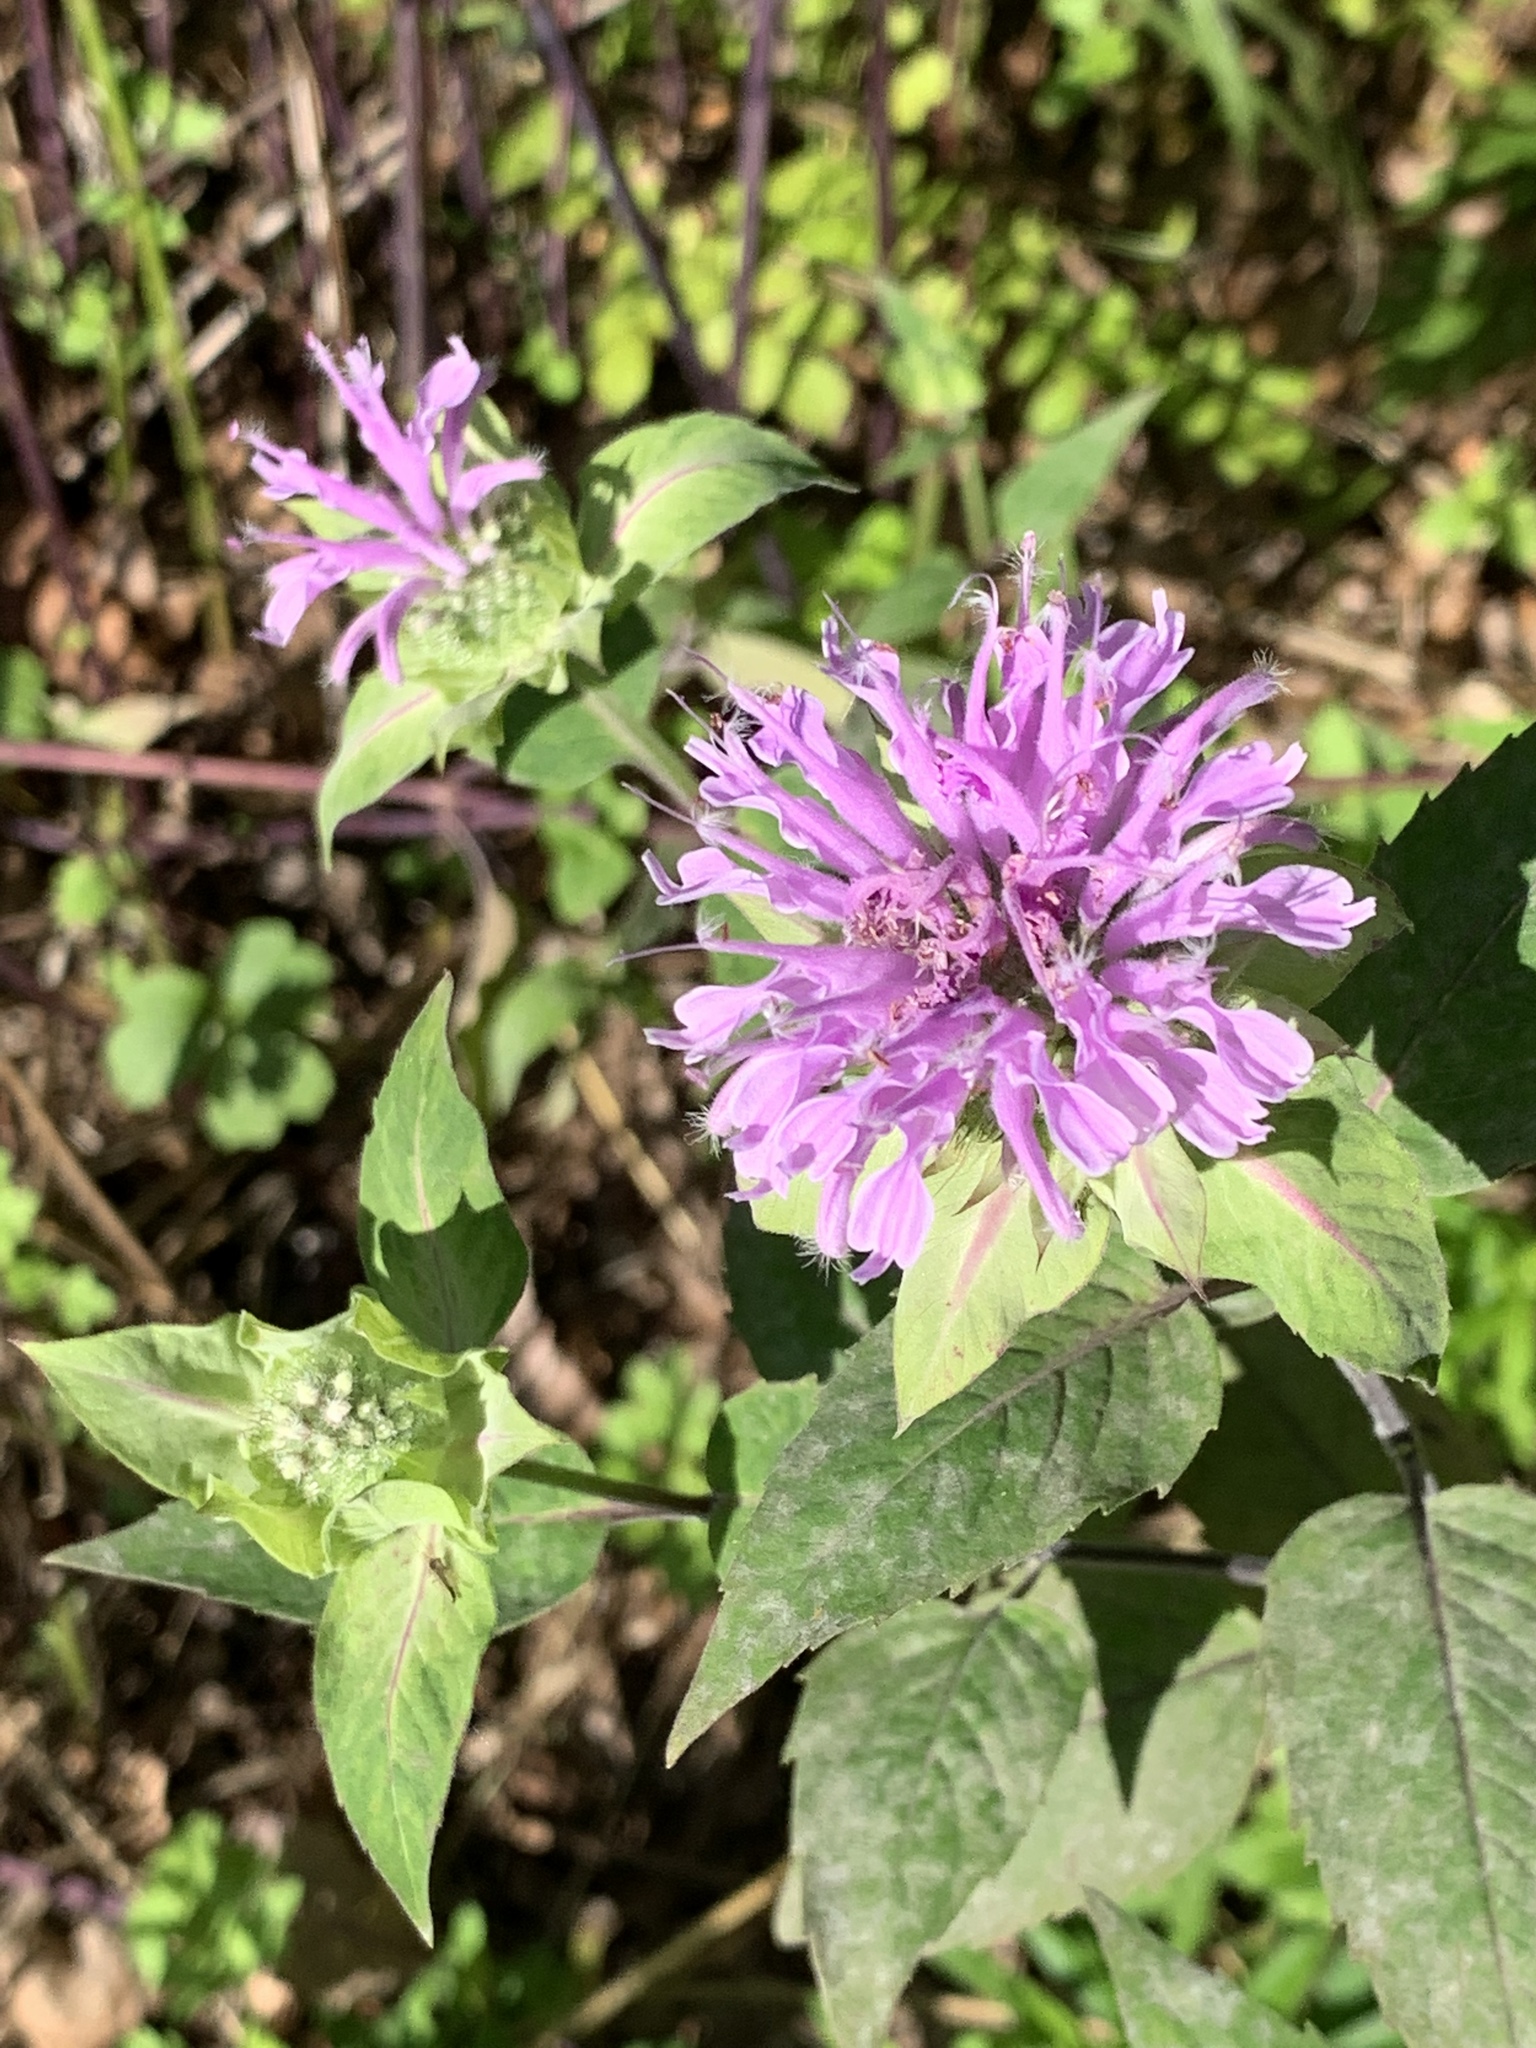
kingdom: Plantae
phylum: Tracheophyta
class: Magnoliopsida
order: Lamiales
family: Lamiaceae
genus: Monarda
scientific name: Monarda fistulosa
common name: Purple beebalm
